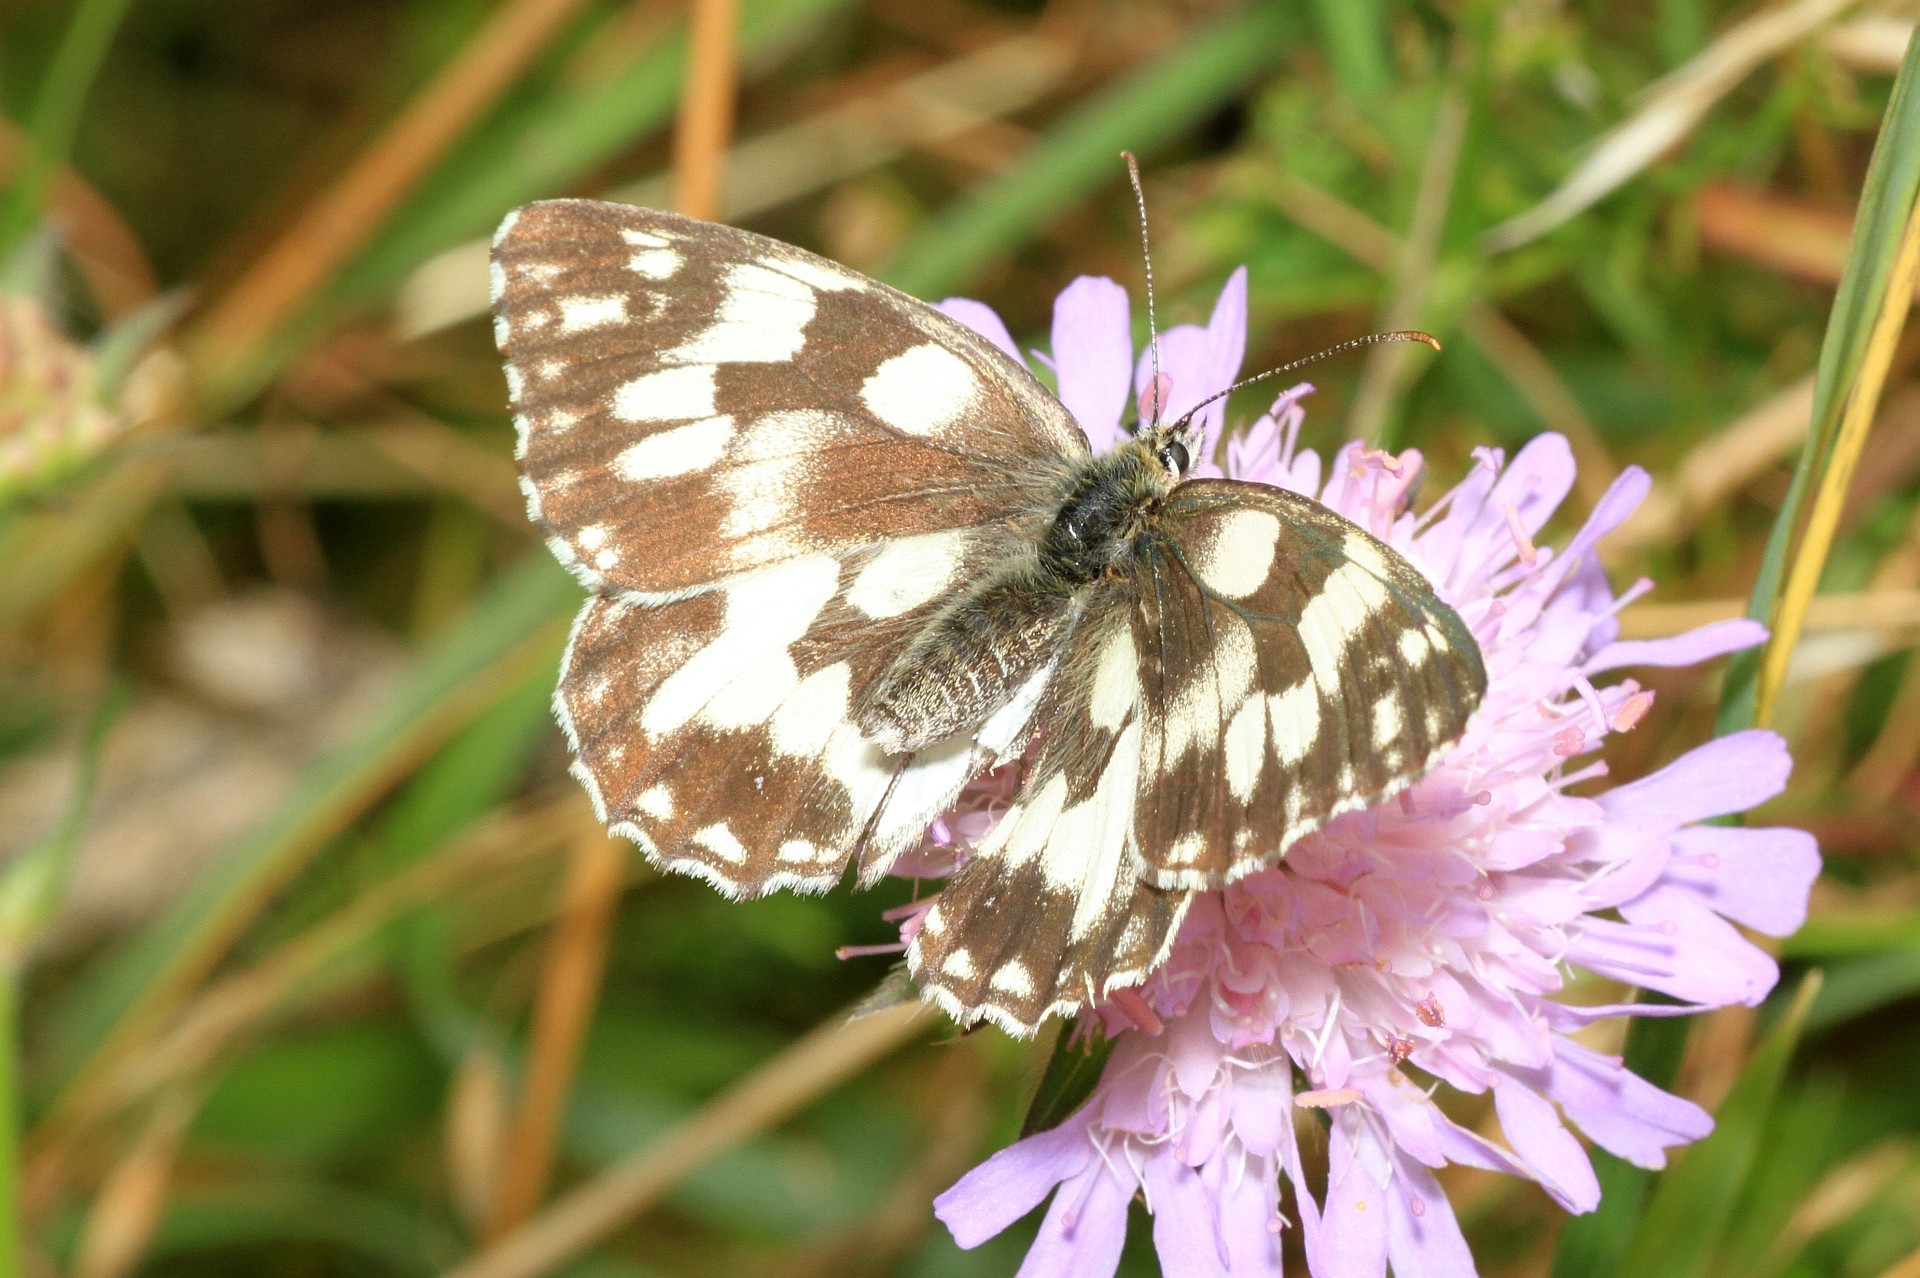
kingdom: Animalia
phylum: Arthropoda
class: Insecta
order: Lepidoptera
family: Nymphalidae
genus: Melanargia
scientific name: Melanargia galathea
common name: Marbled white
